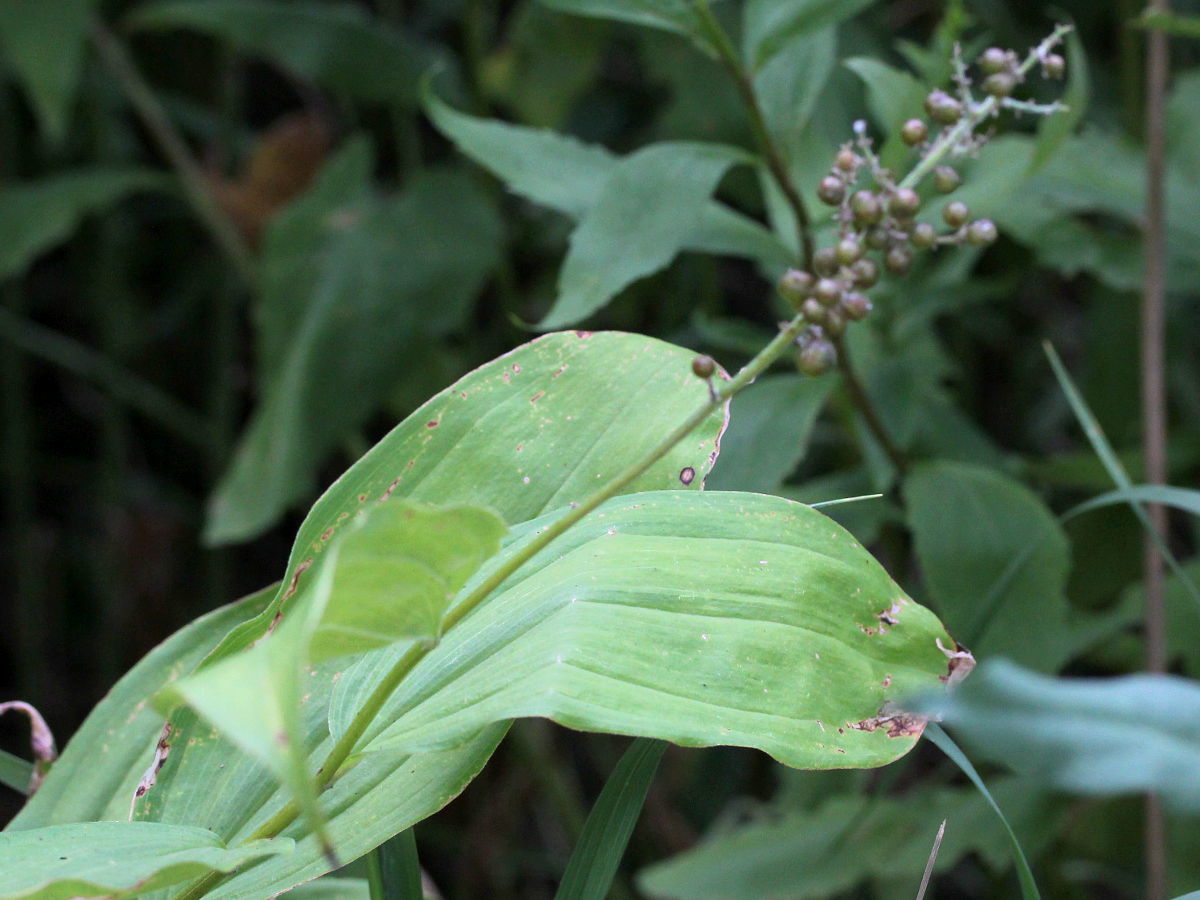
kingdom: Plantae
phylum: Tracheophyta
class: Liliopsida
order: Asparagales
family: Asparagaceae
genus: Maianthemum
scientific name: Maianthemum racemosum
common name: False spikenard
